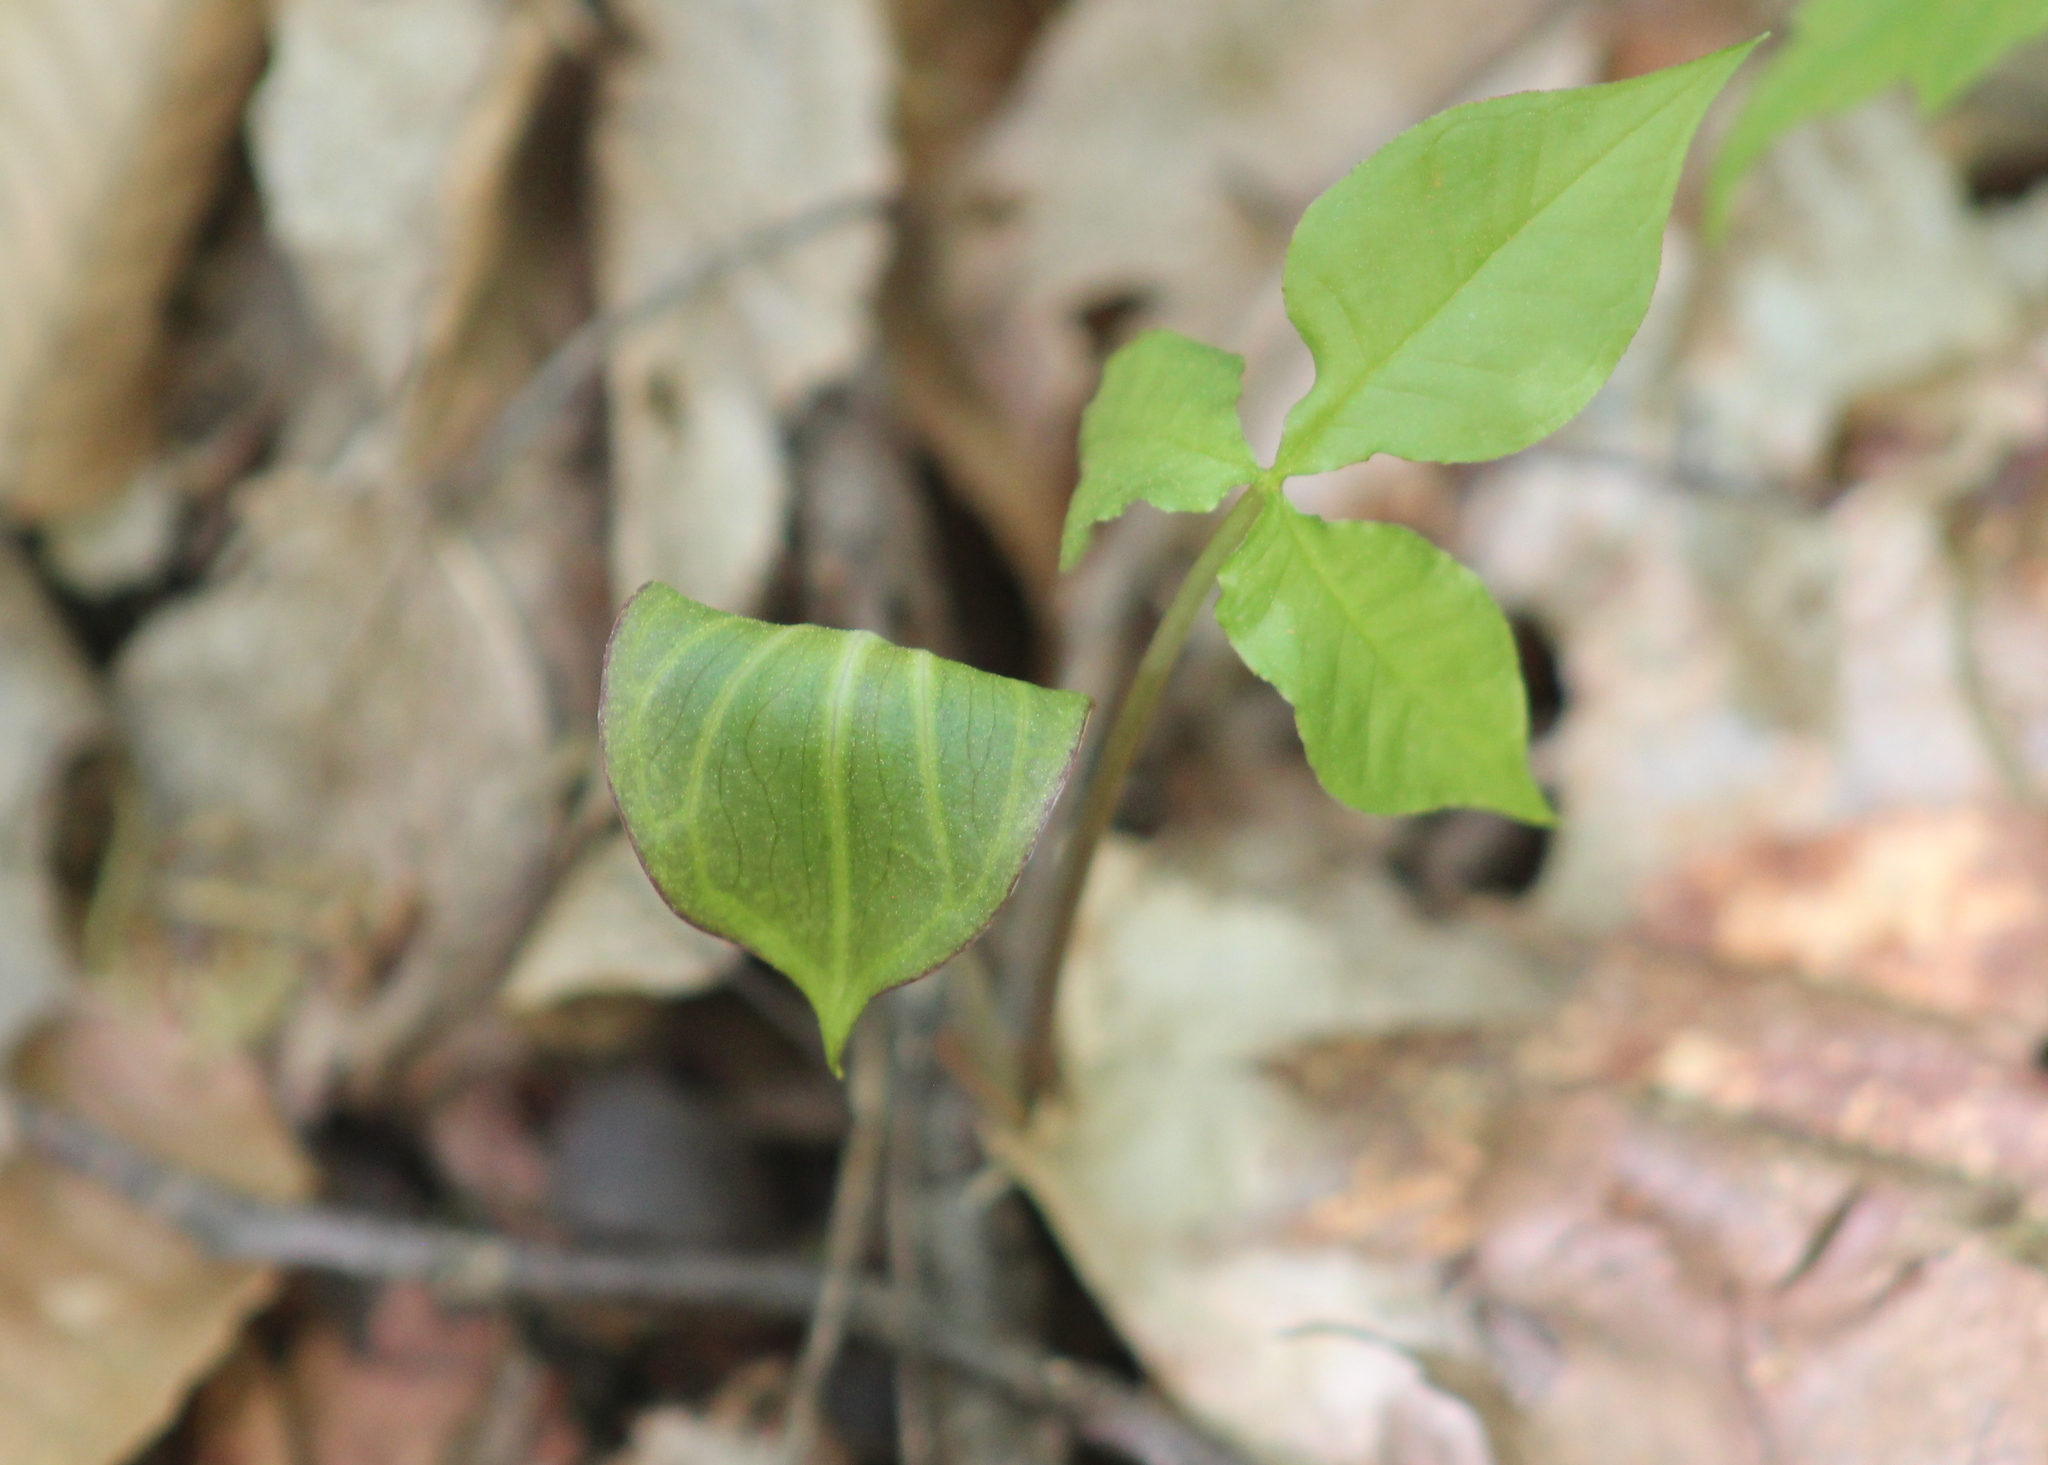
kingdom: Plantae
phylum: Tracheophyta
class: Liliopsida
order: Alismatales
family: Araceae
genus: Arisaema
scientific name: Arisaema triphyllum
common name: Jack-in-the-pulpit
